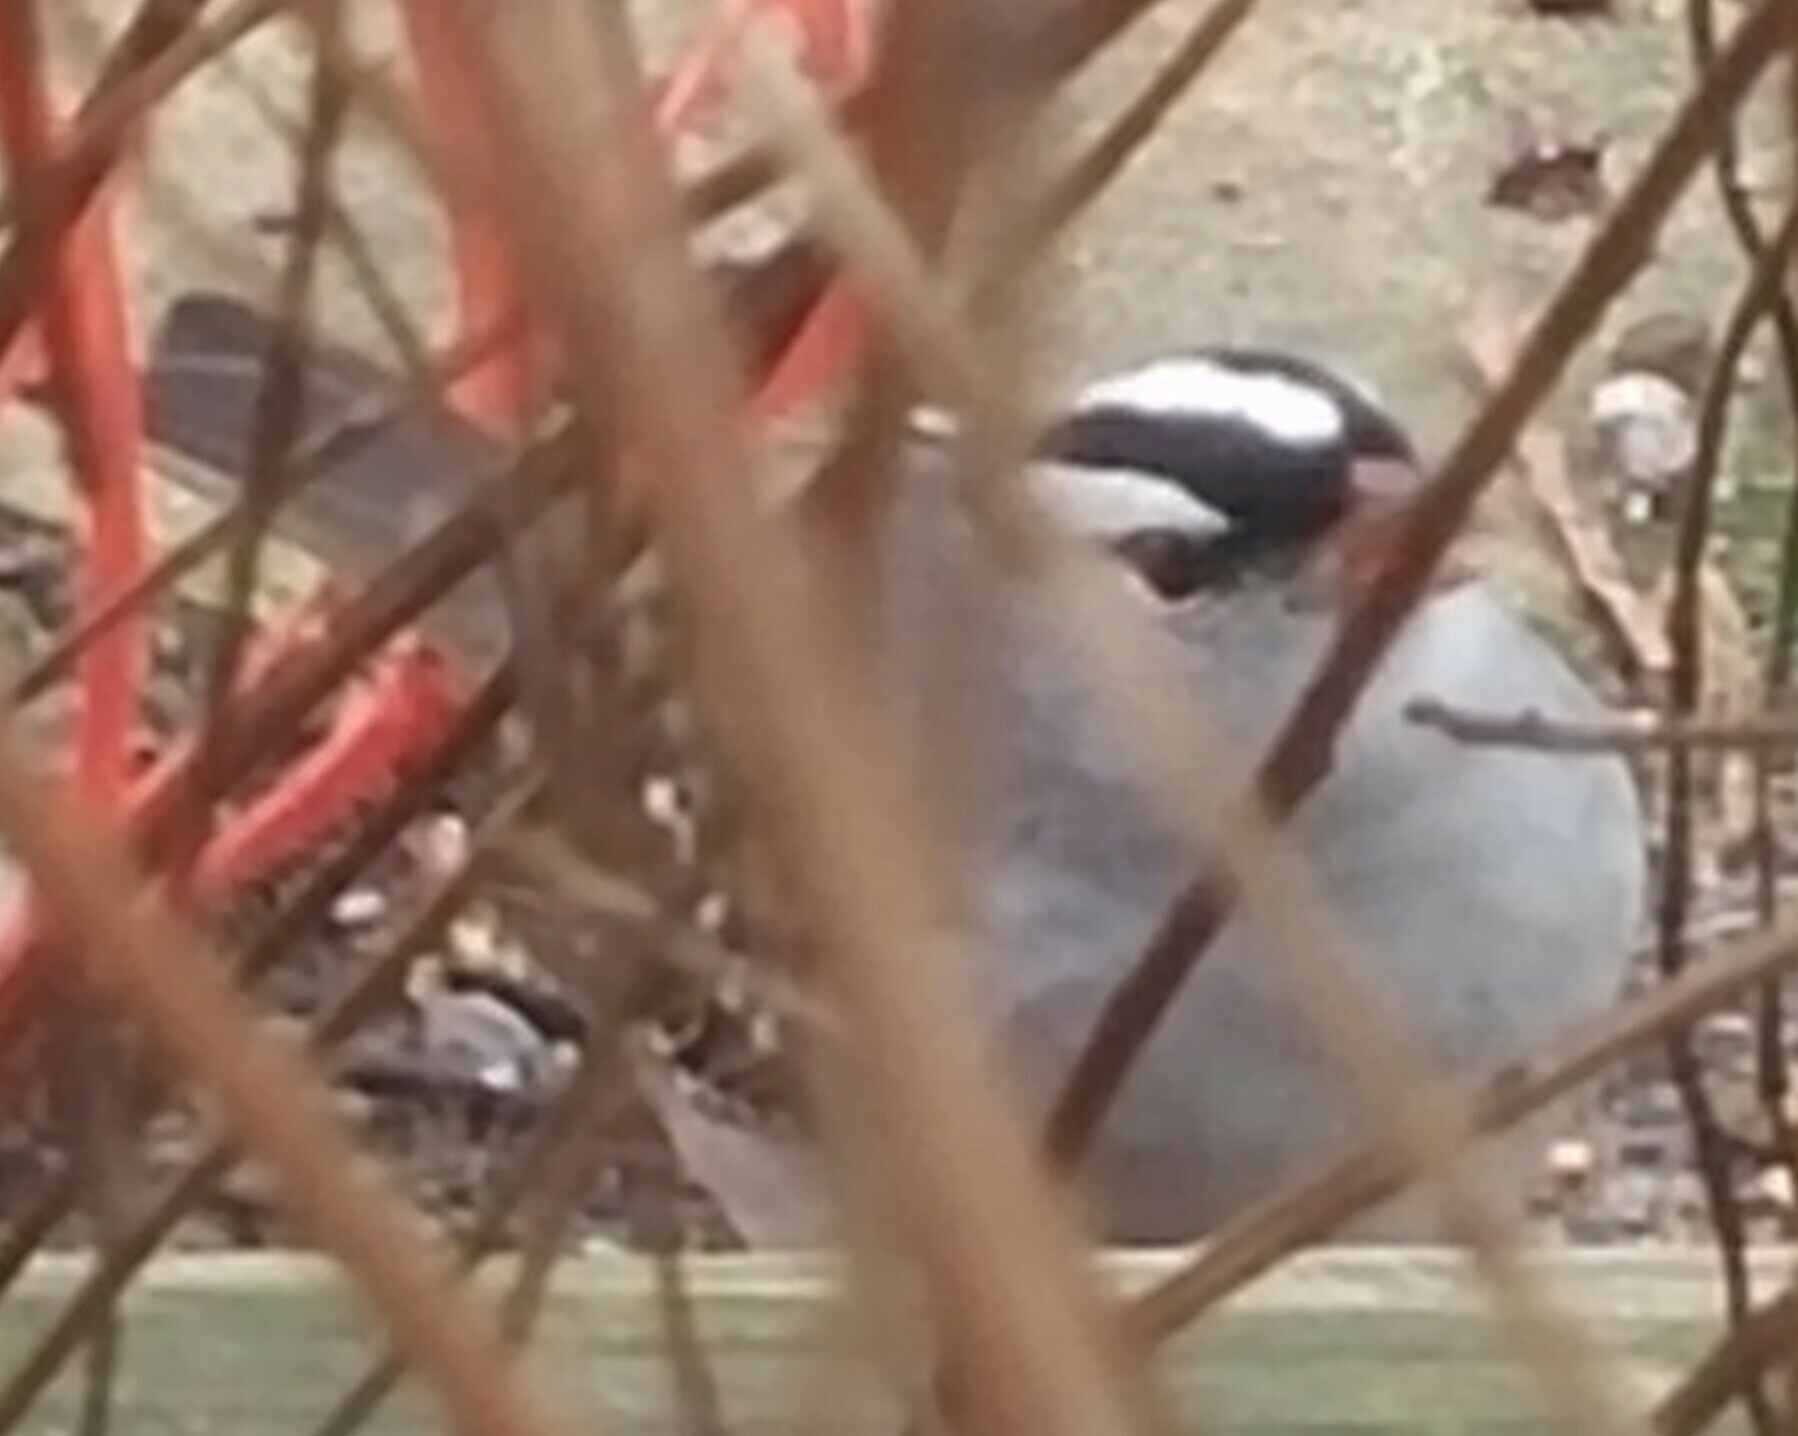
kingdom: Animalia
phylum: Chordata
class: Aves
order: Passeriformes
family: Passerellidae
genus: Zonotrichia
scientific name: Zonotrichia leucophrys
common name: White-crowned sparrow
